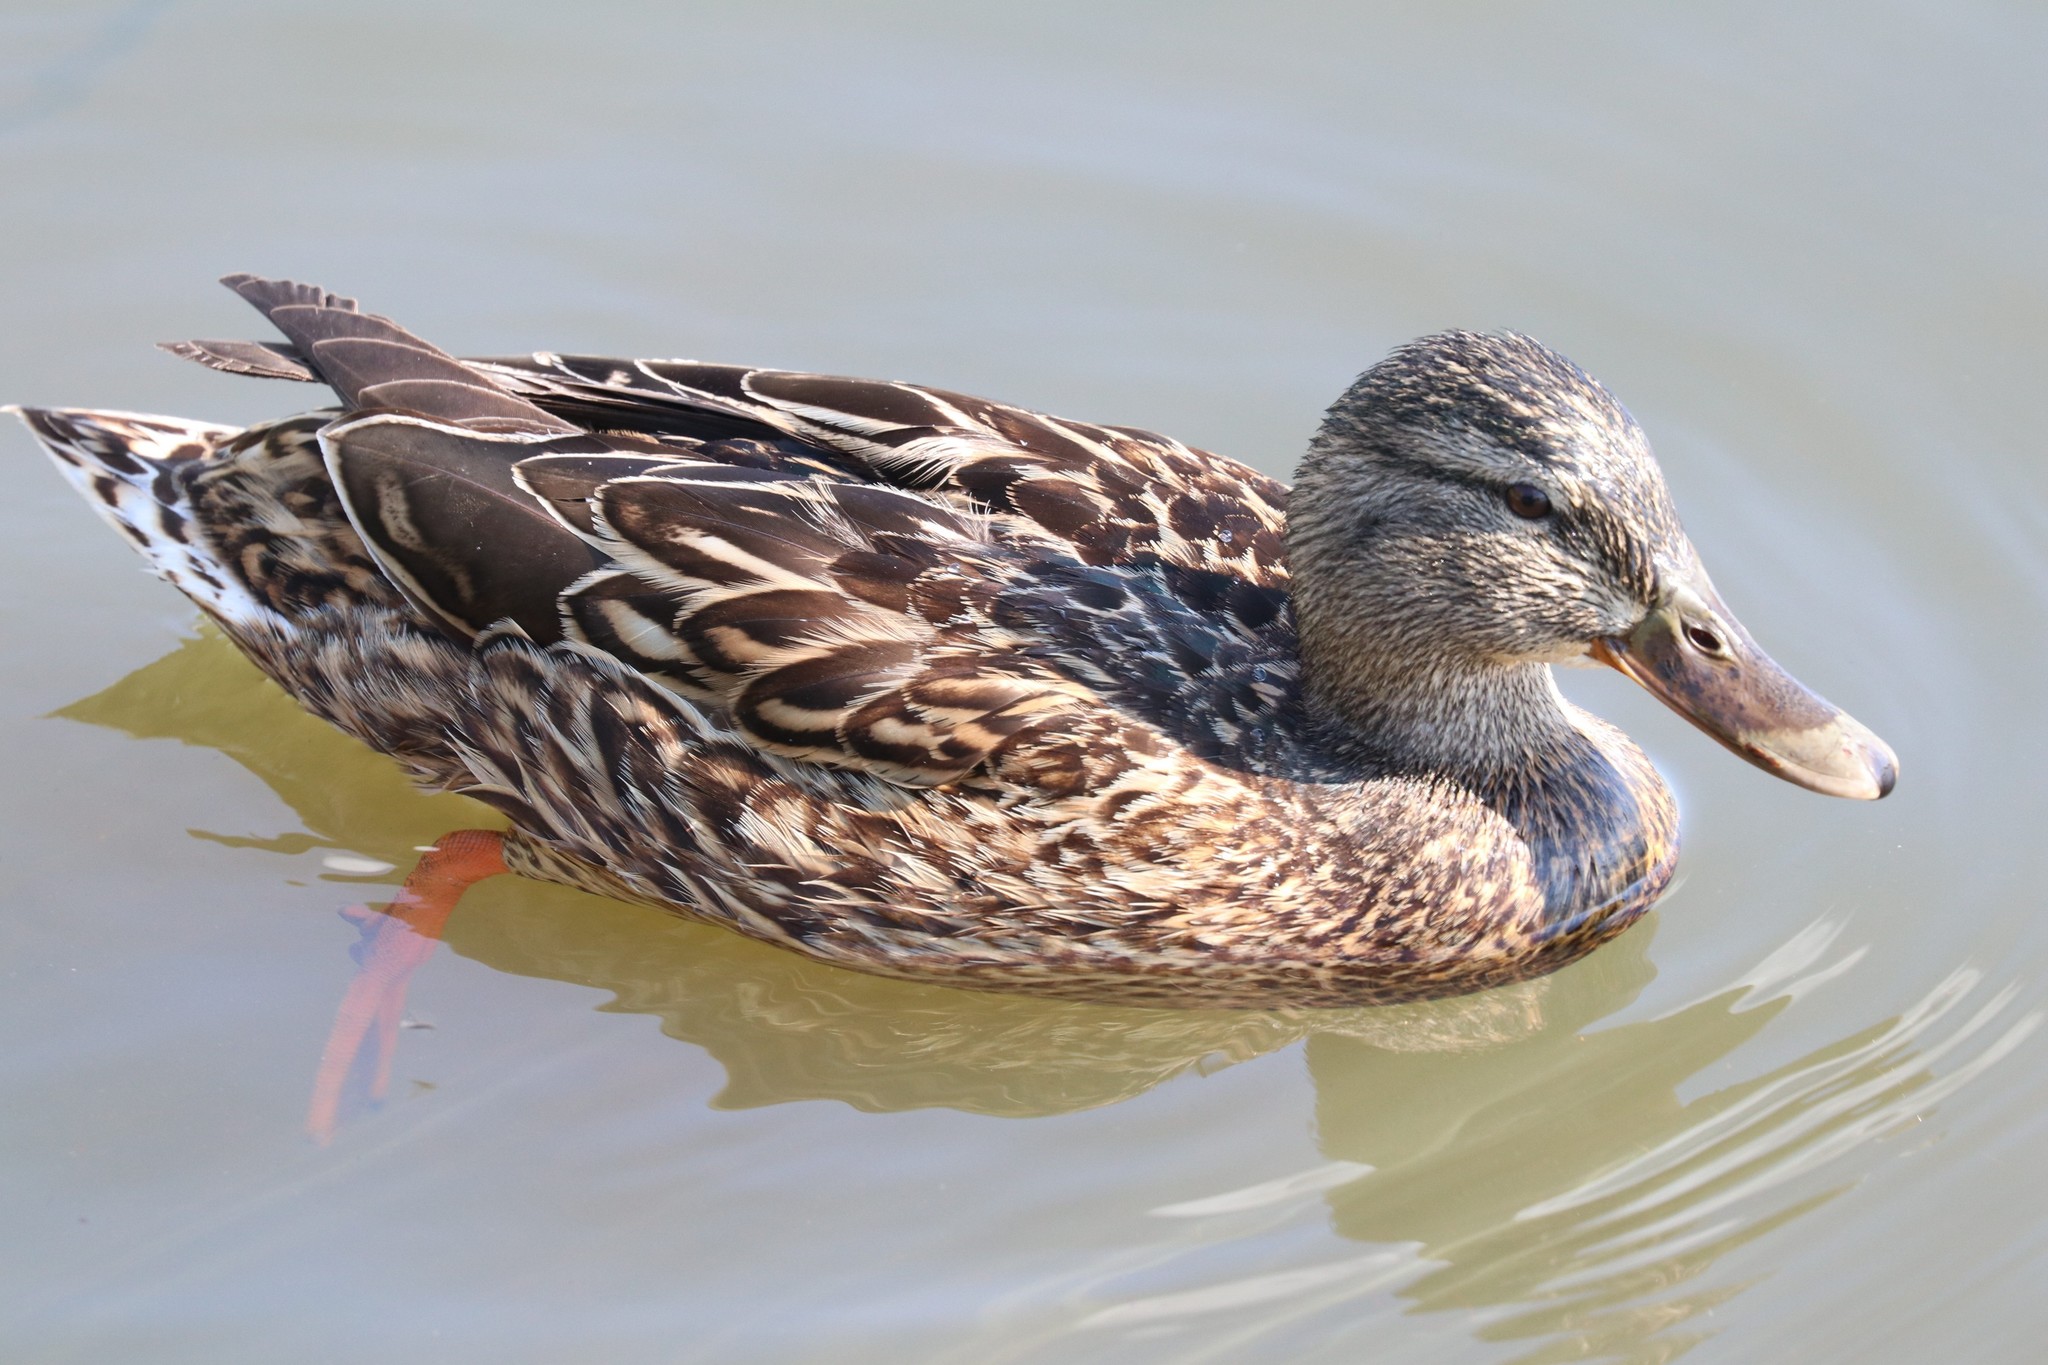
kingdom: Animalia
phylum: Chordata
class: Aves
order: Anseriformes
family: Anatidae
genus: Anas
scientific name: Anas platyrhynchos
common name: Mallard
